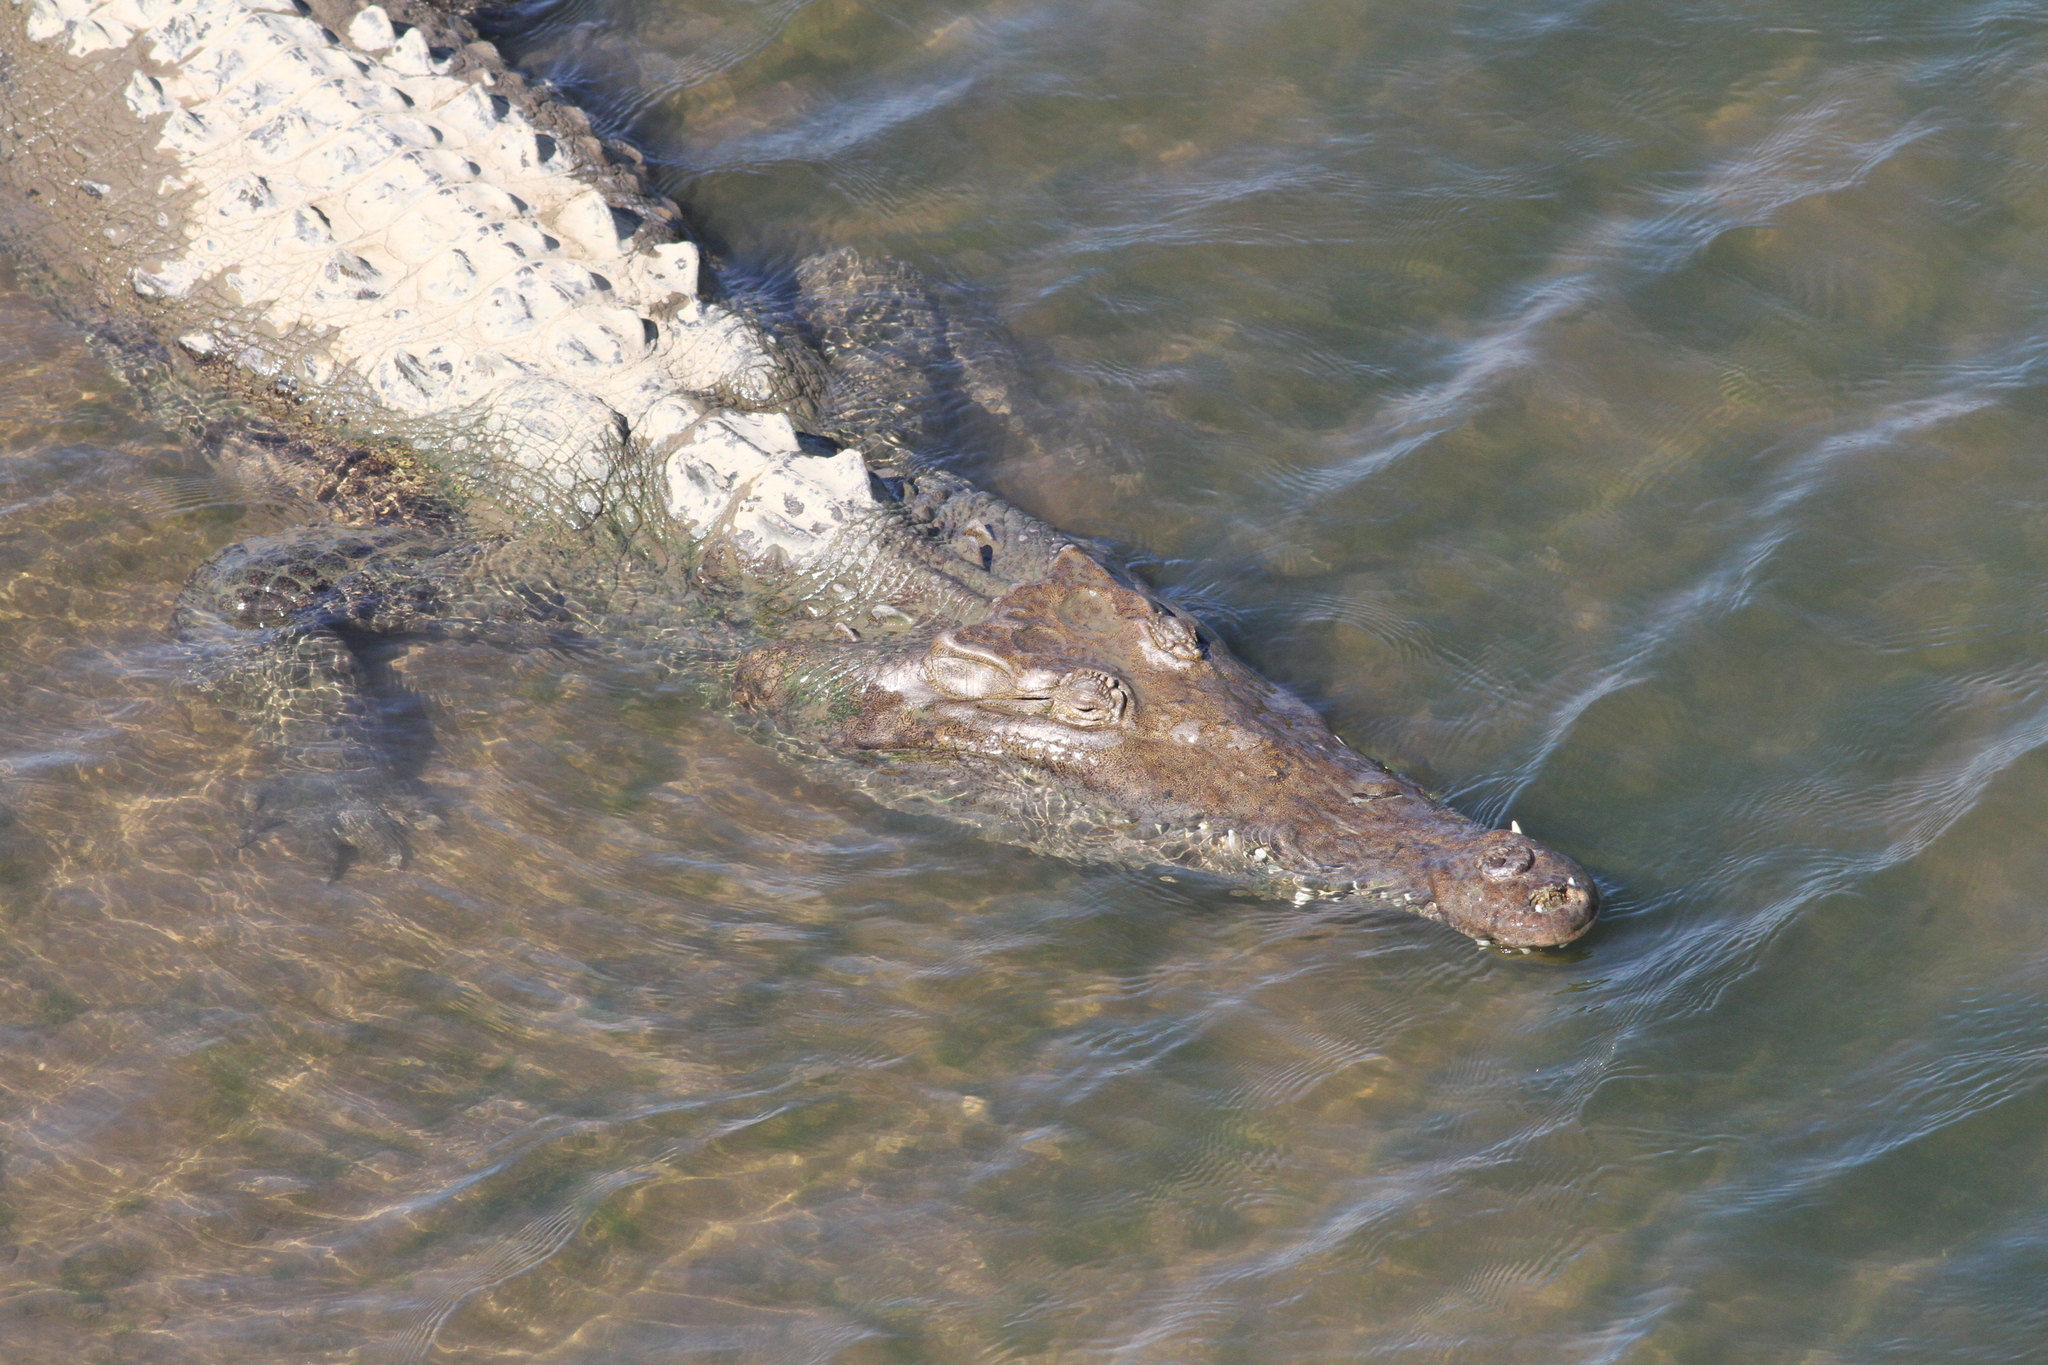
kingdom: Animalia
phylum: Chordata
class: Crocodylia
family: Crocodylidae
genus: Crocodylus
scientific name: Crocodylus acutus
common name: American crocodile
